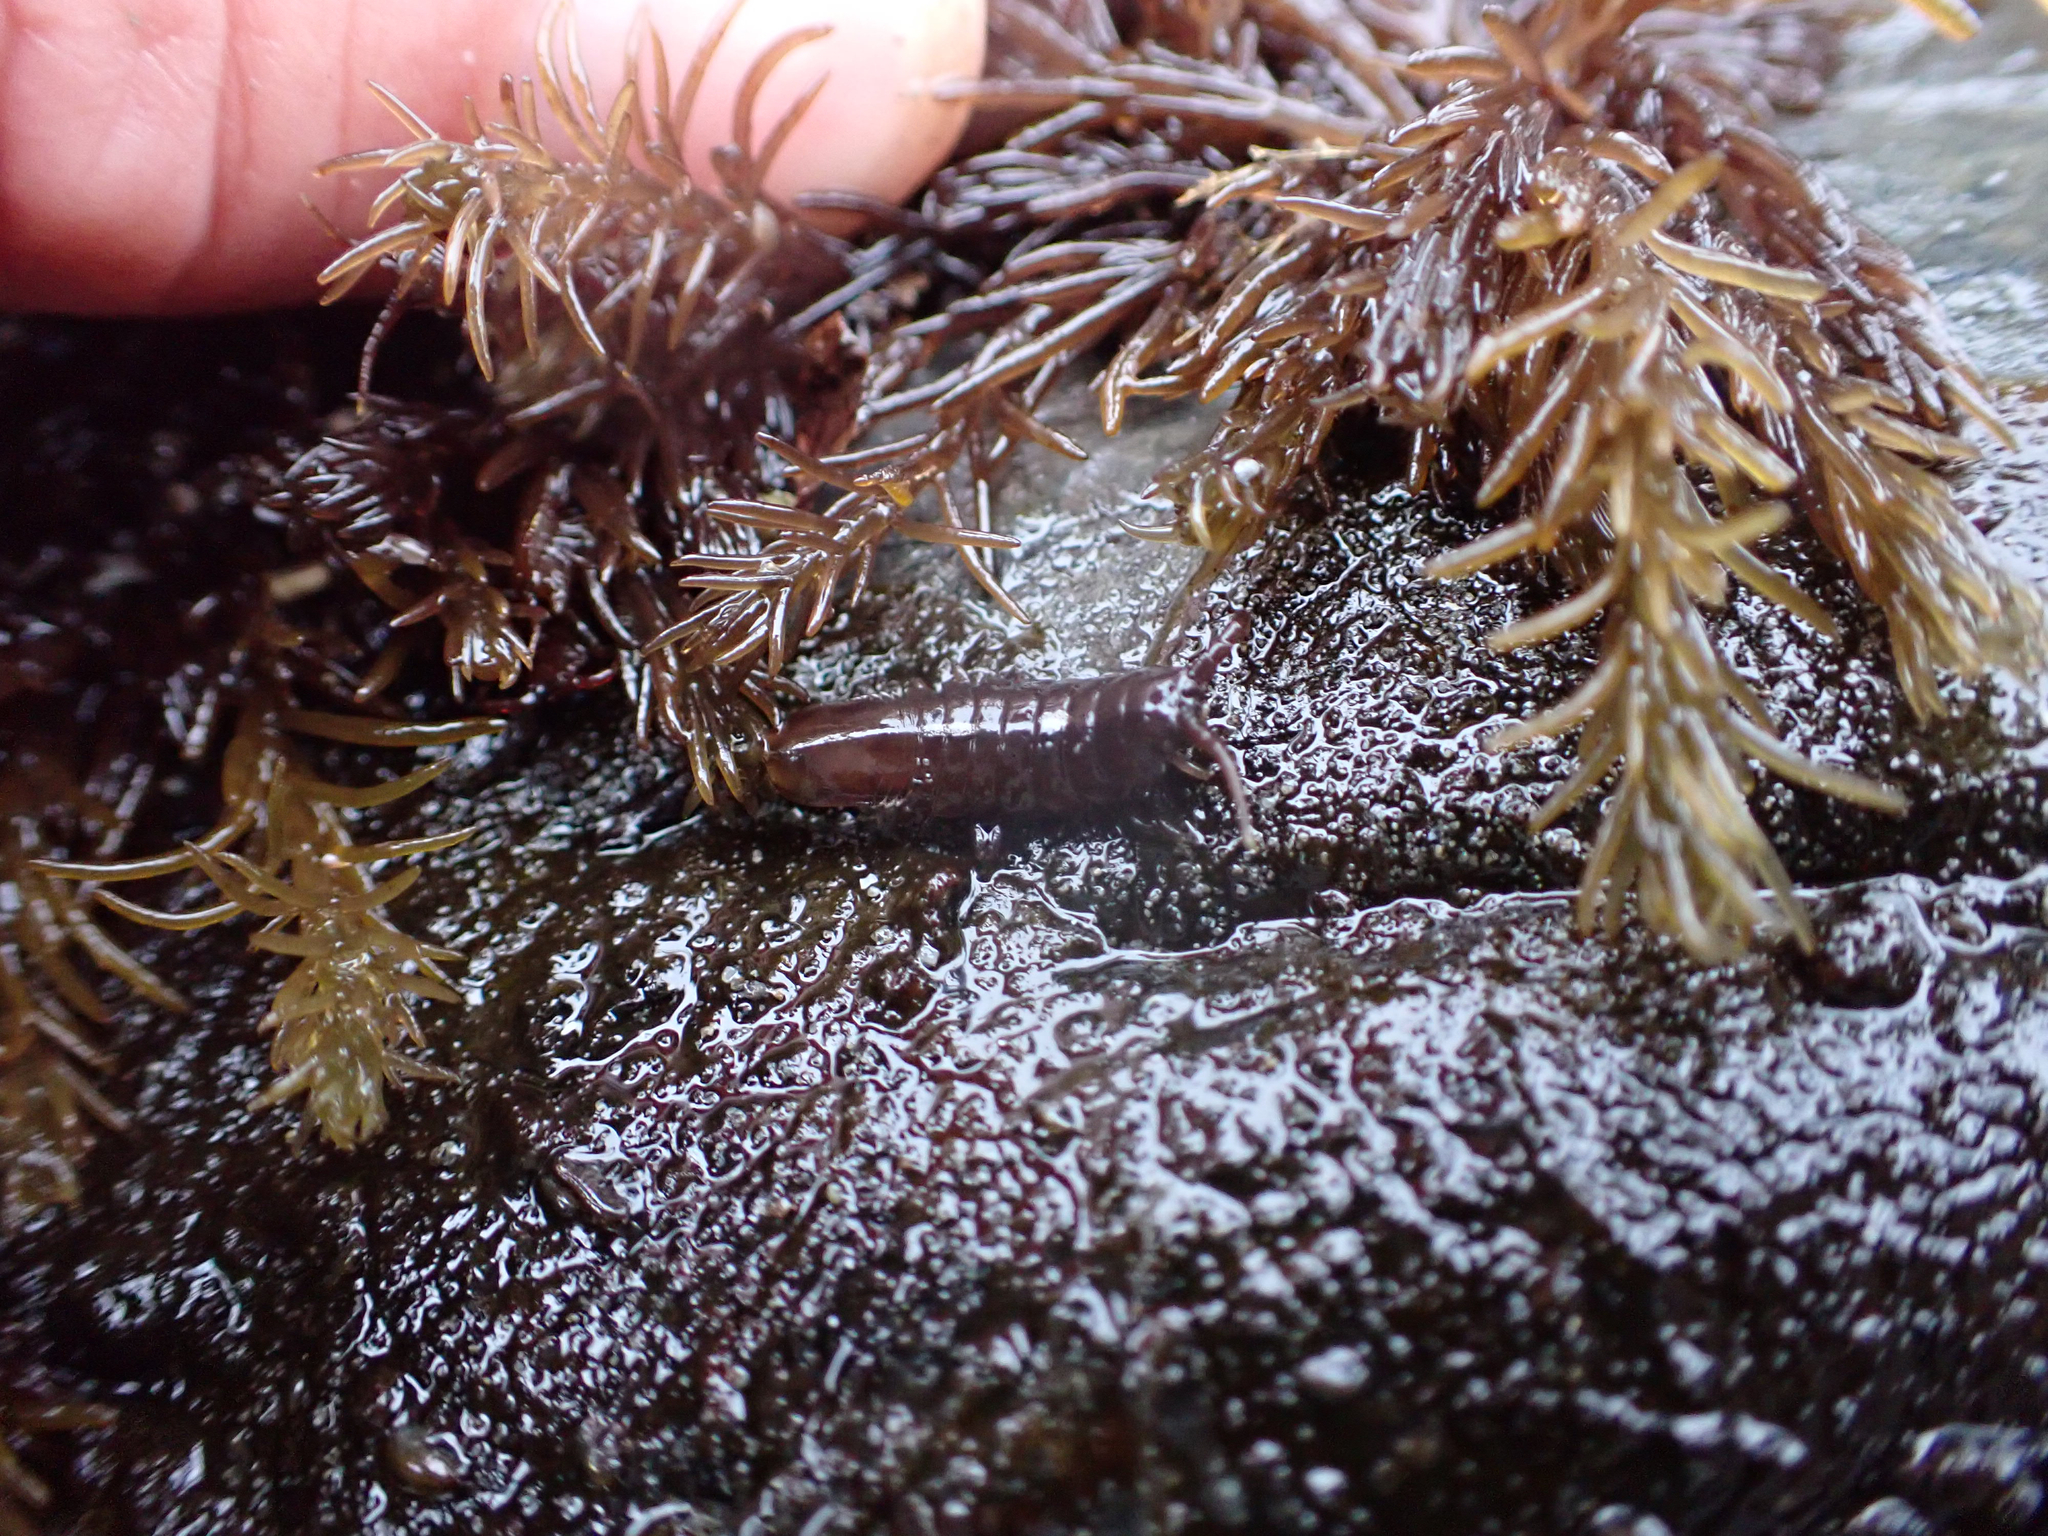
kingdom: Animalia
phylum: Arthropoda
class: Malacostraca
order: Isopoda
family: Idoteidae
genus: Pentidotea
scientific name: Pentidotea wosnesenskii
